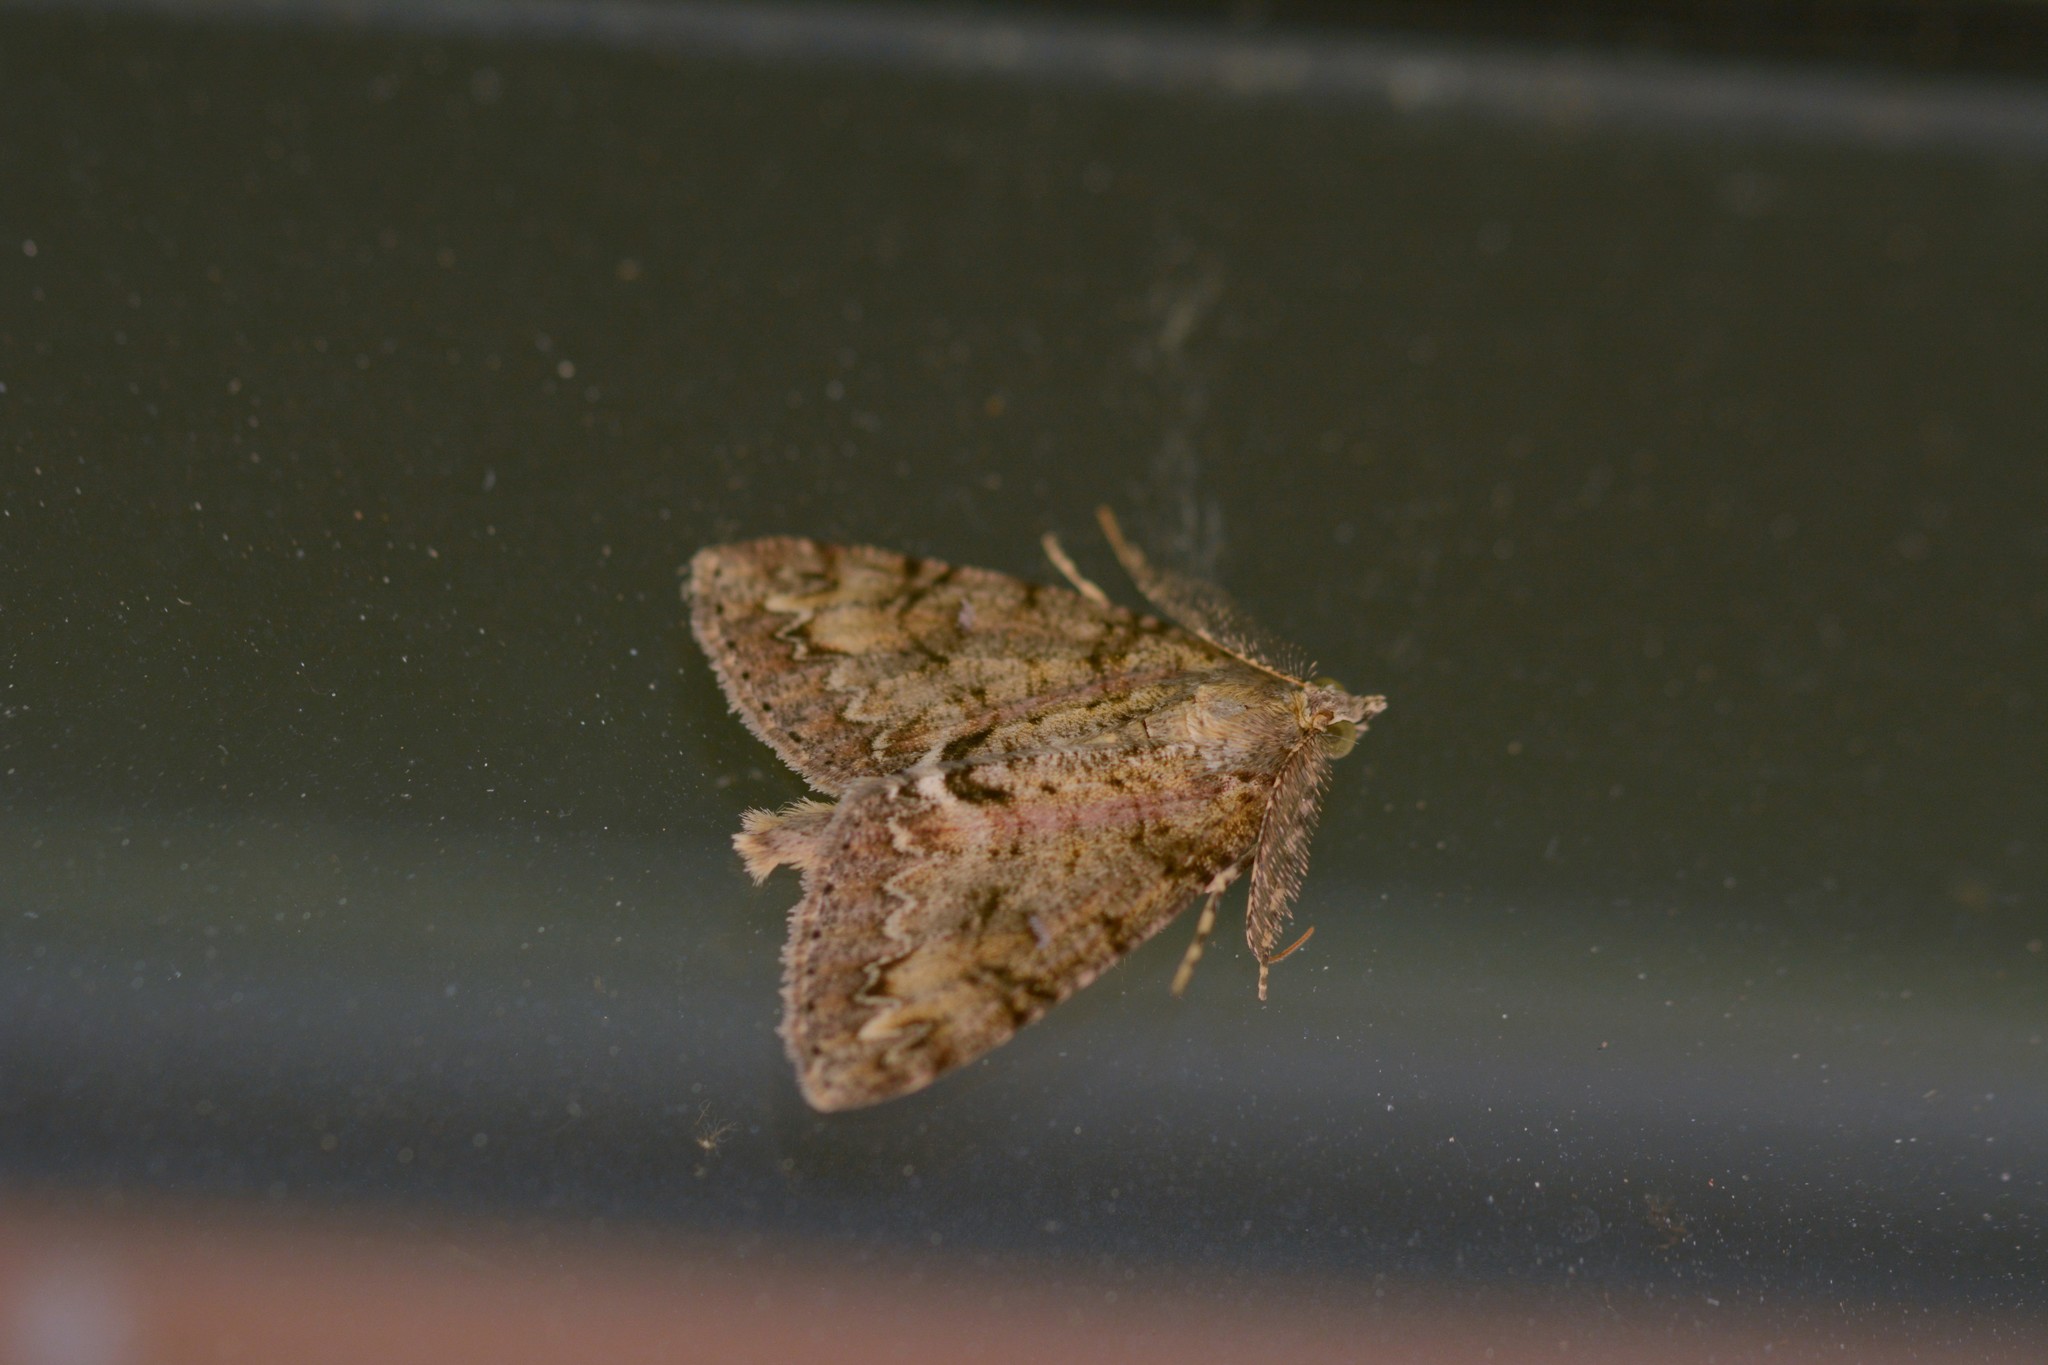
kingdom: Animalia
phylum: Arthropoda
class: Insecta
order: Lepidoptera
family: Geometridae
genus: Pseudocoremia
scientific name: Pseudocoremia suavis
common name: Common forest looper
